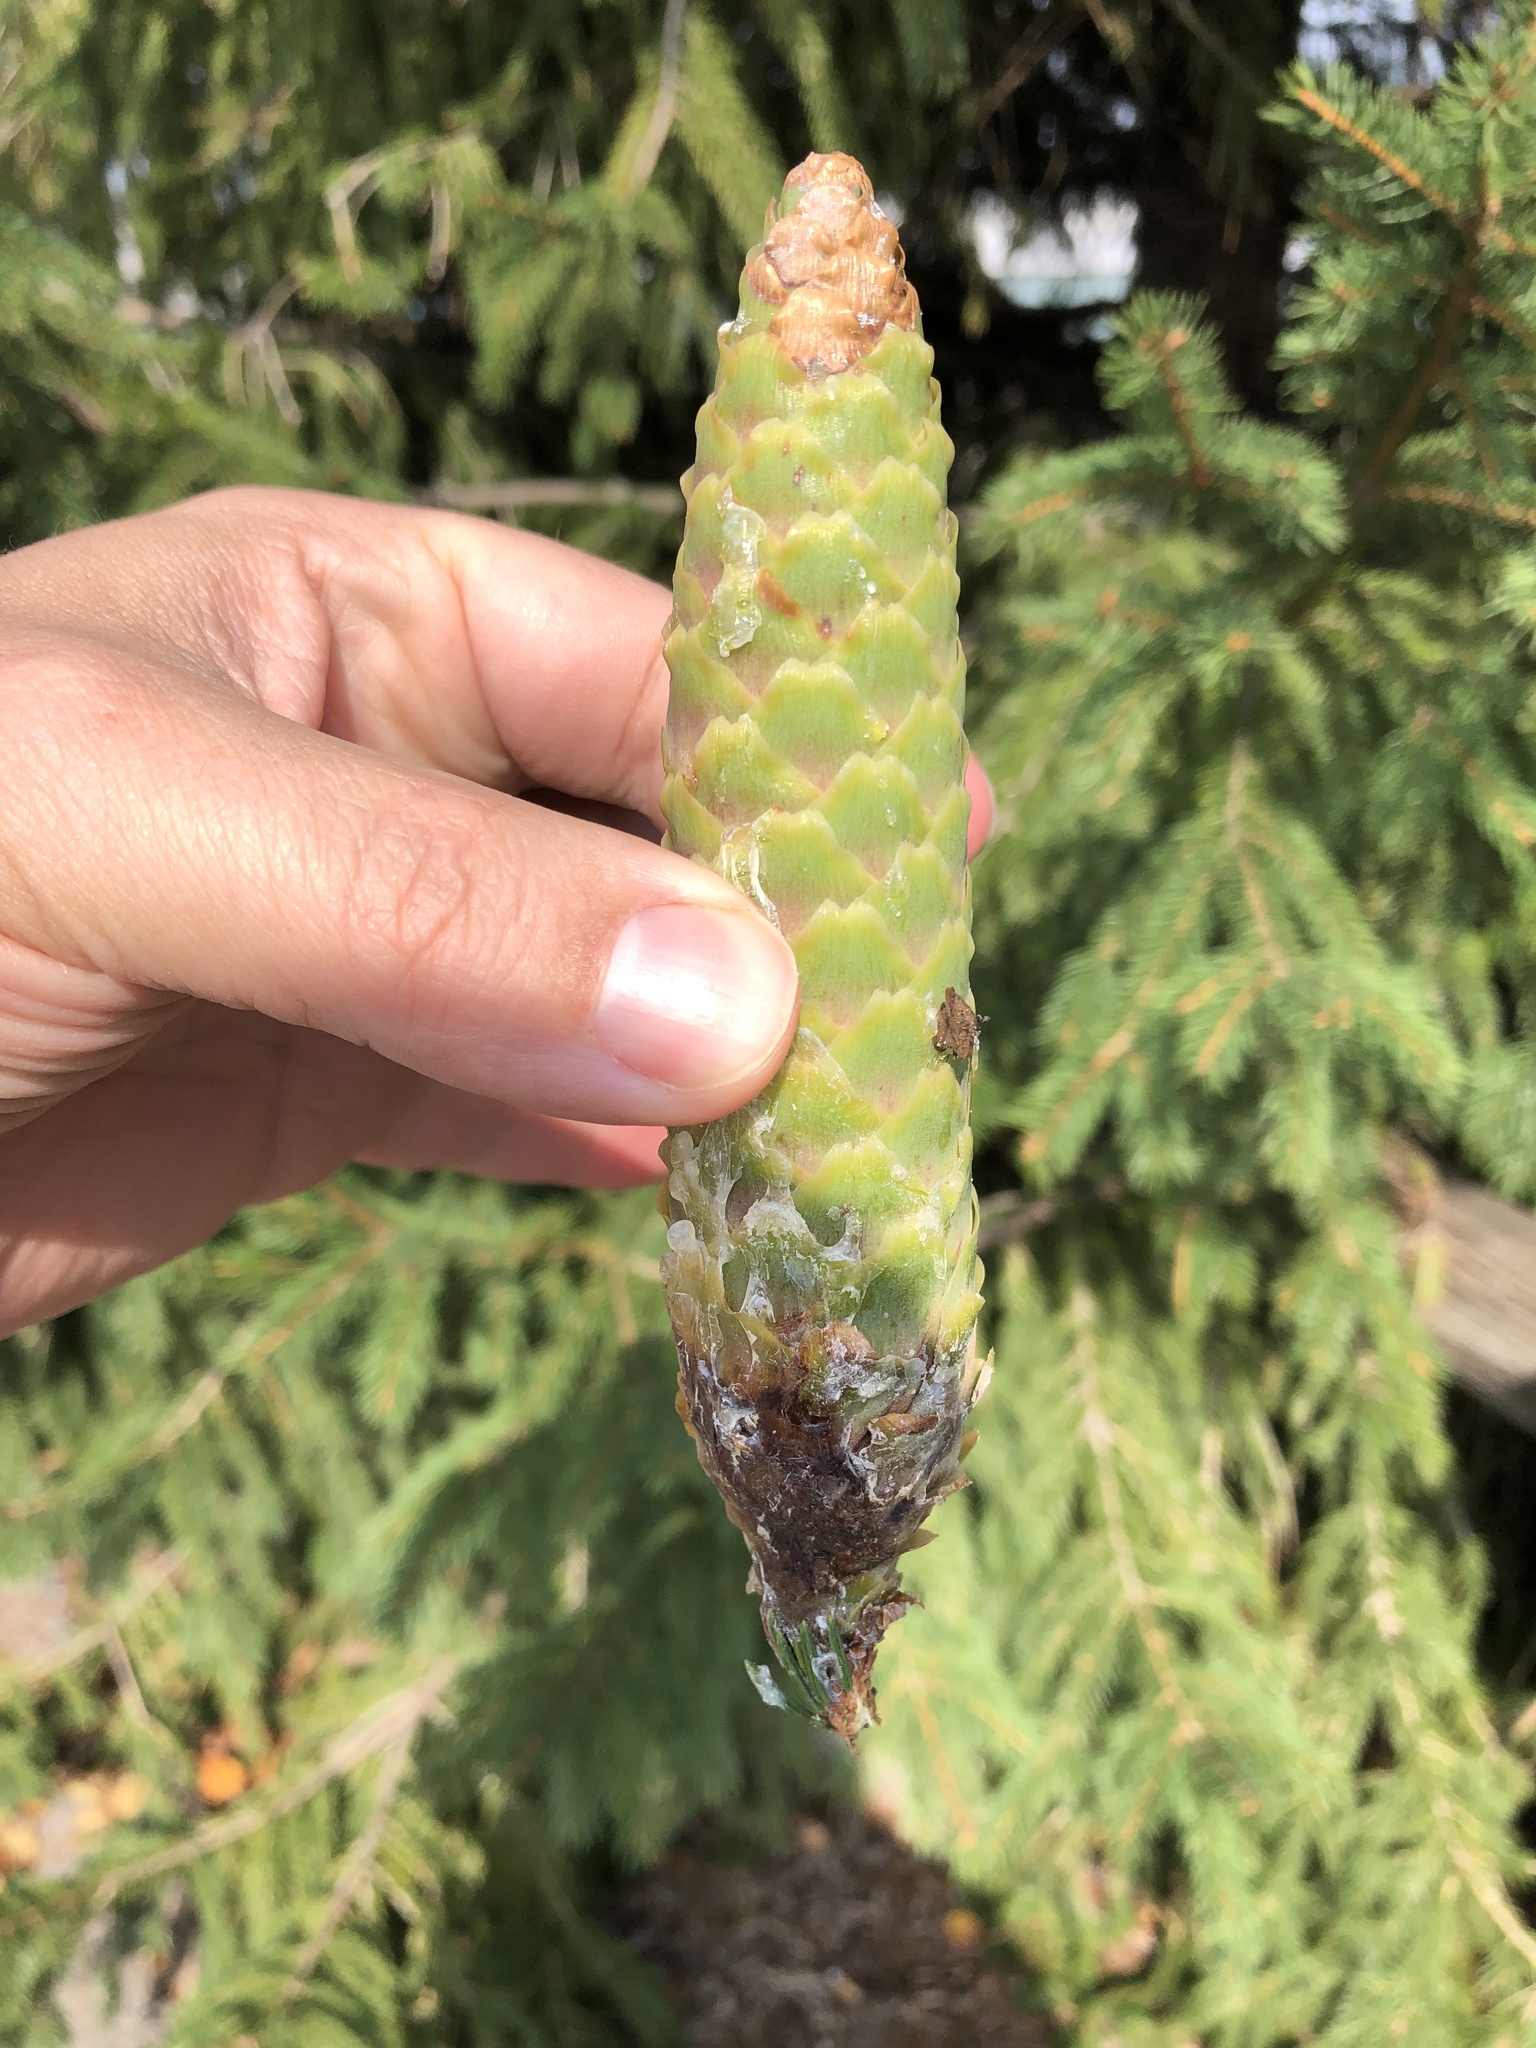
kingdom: Plantae
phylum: Tracheophyta
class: Pinopsida
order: Pinales
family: Pinaceae
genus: Picea
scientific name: Picea abies
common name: Norway spruce
